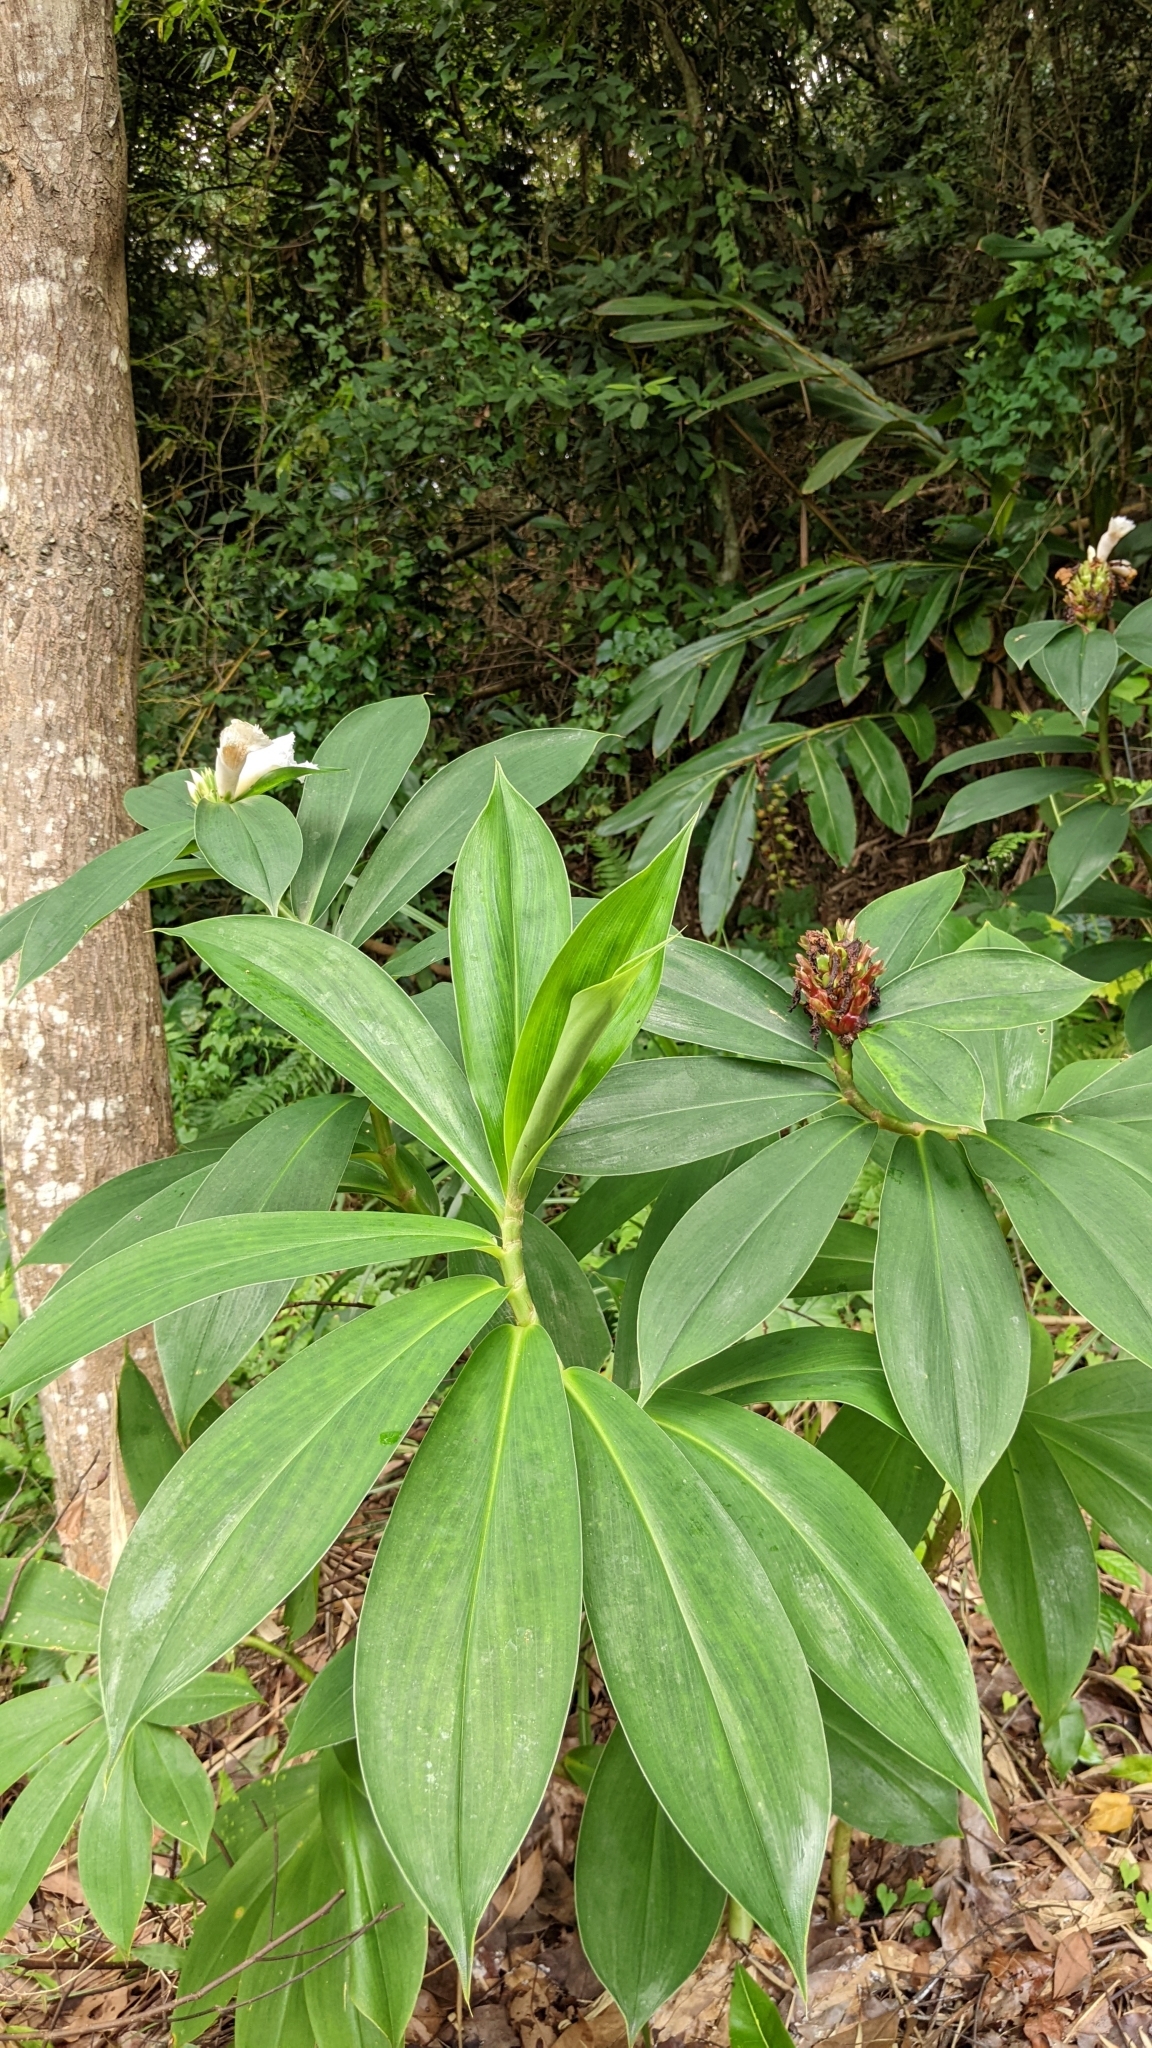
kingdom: Plantae
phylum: Tracheophyta
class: Liliopsida
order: Zingiberales
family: Costaceae
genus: Hellenia
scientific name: Hellenia speciosa
